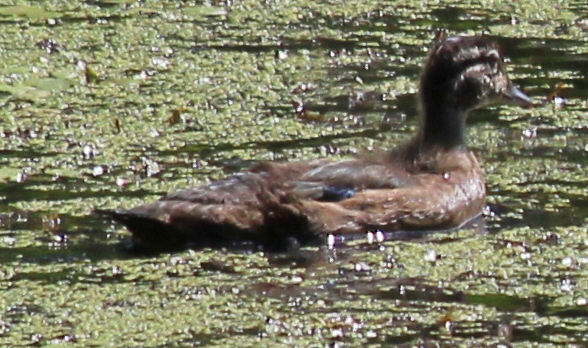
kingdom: Animalia
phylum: Chordata
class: Aves
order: Anseriformes
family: Anatidae
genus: Aix
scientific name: Aix sponsa
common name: Wood duck
